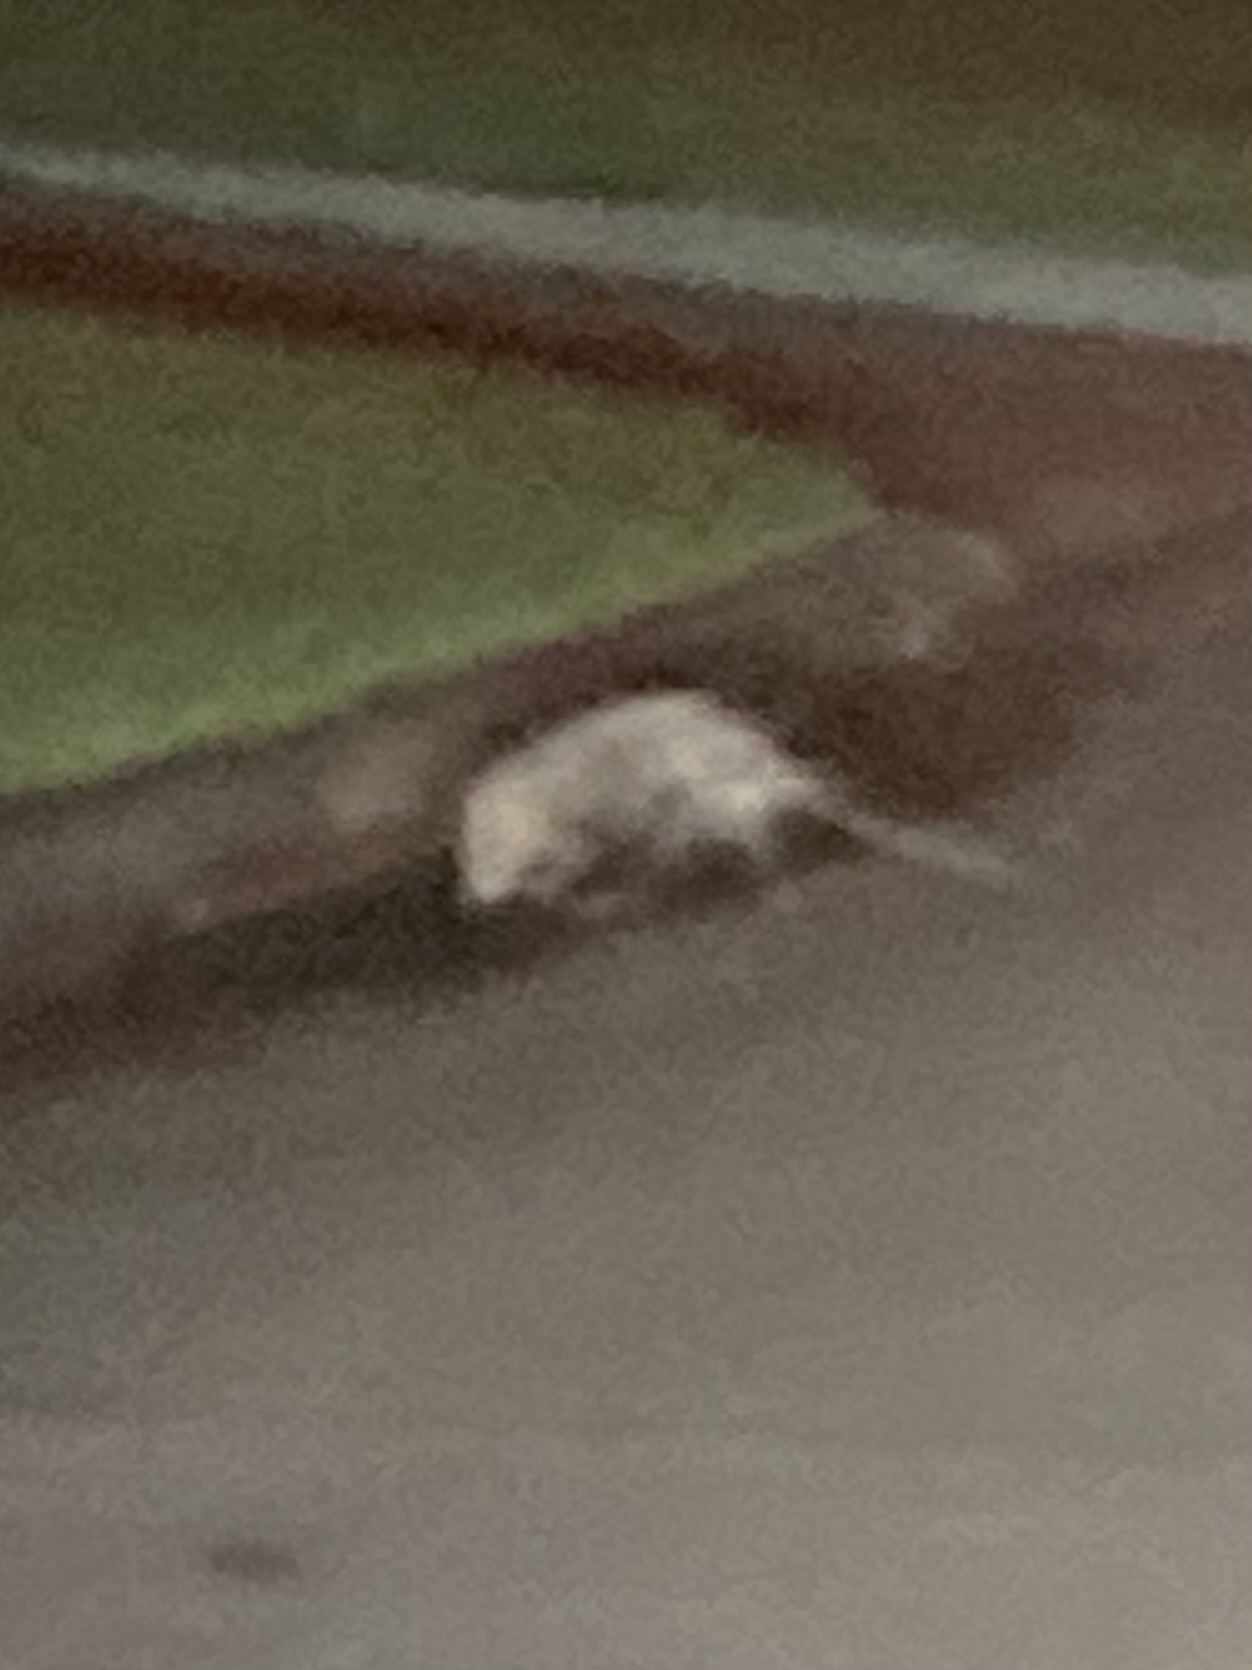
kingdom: Animalia
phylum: Chordata
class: Mammalia
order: Didelphimorphia
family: Didelphidae
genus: Didelphis
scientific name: Didelphis virginiana
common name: Virginia opossum
